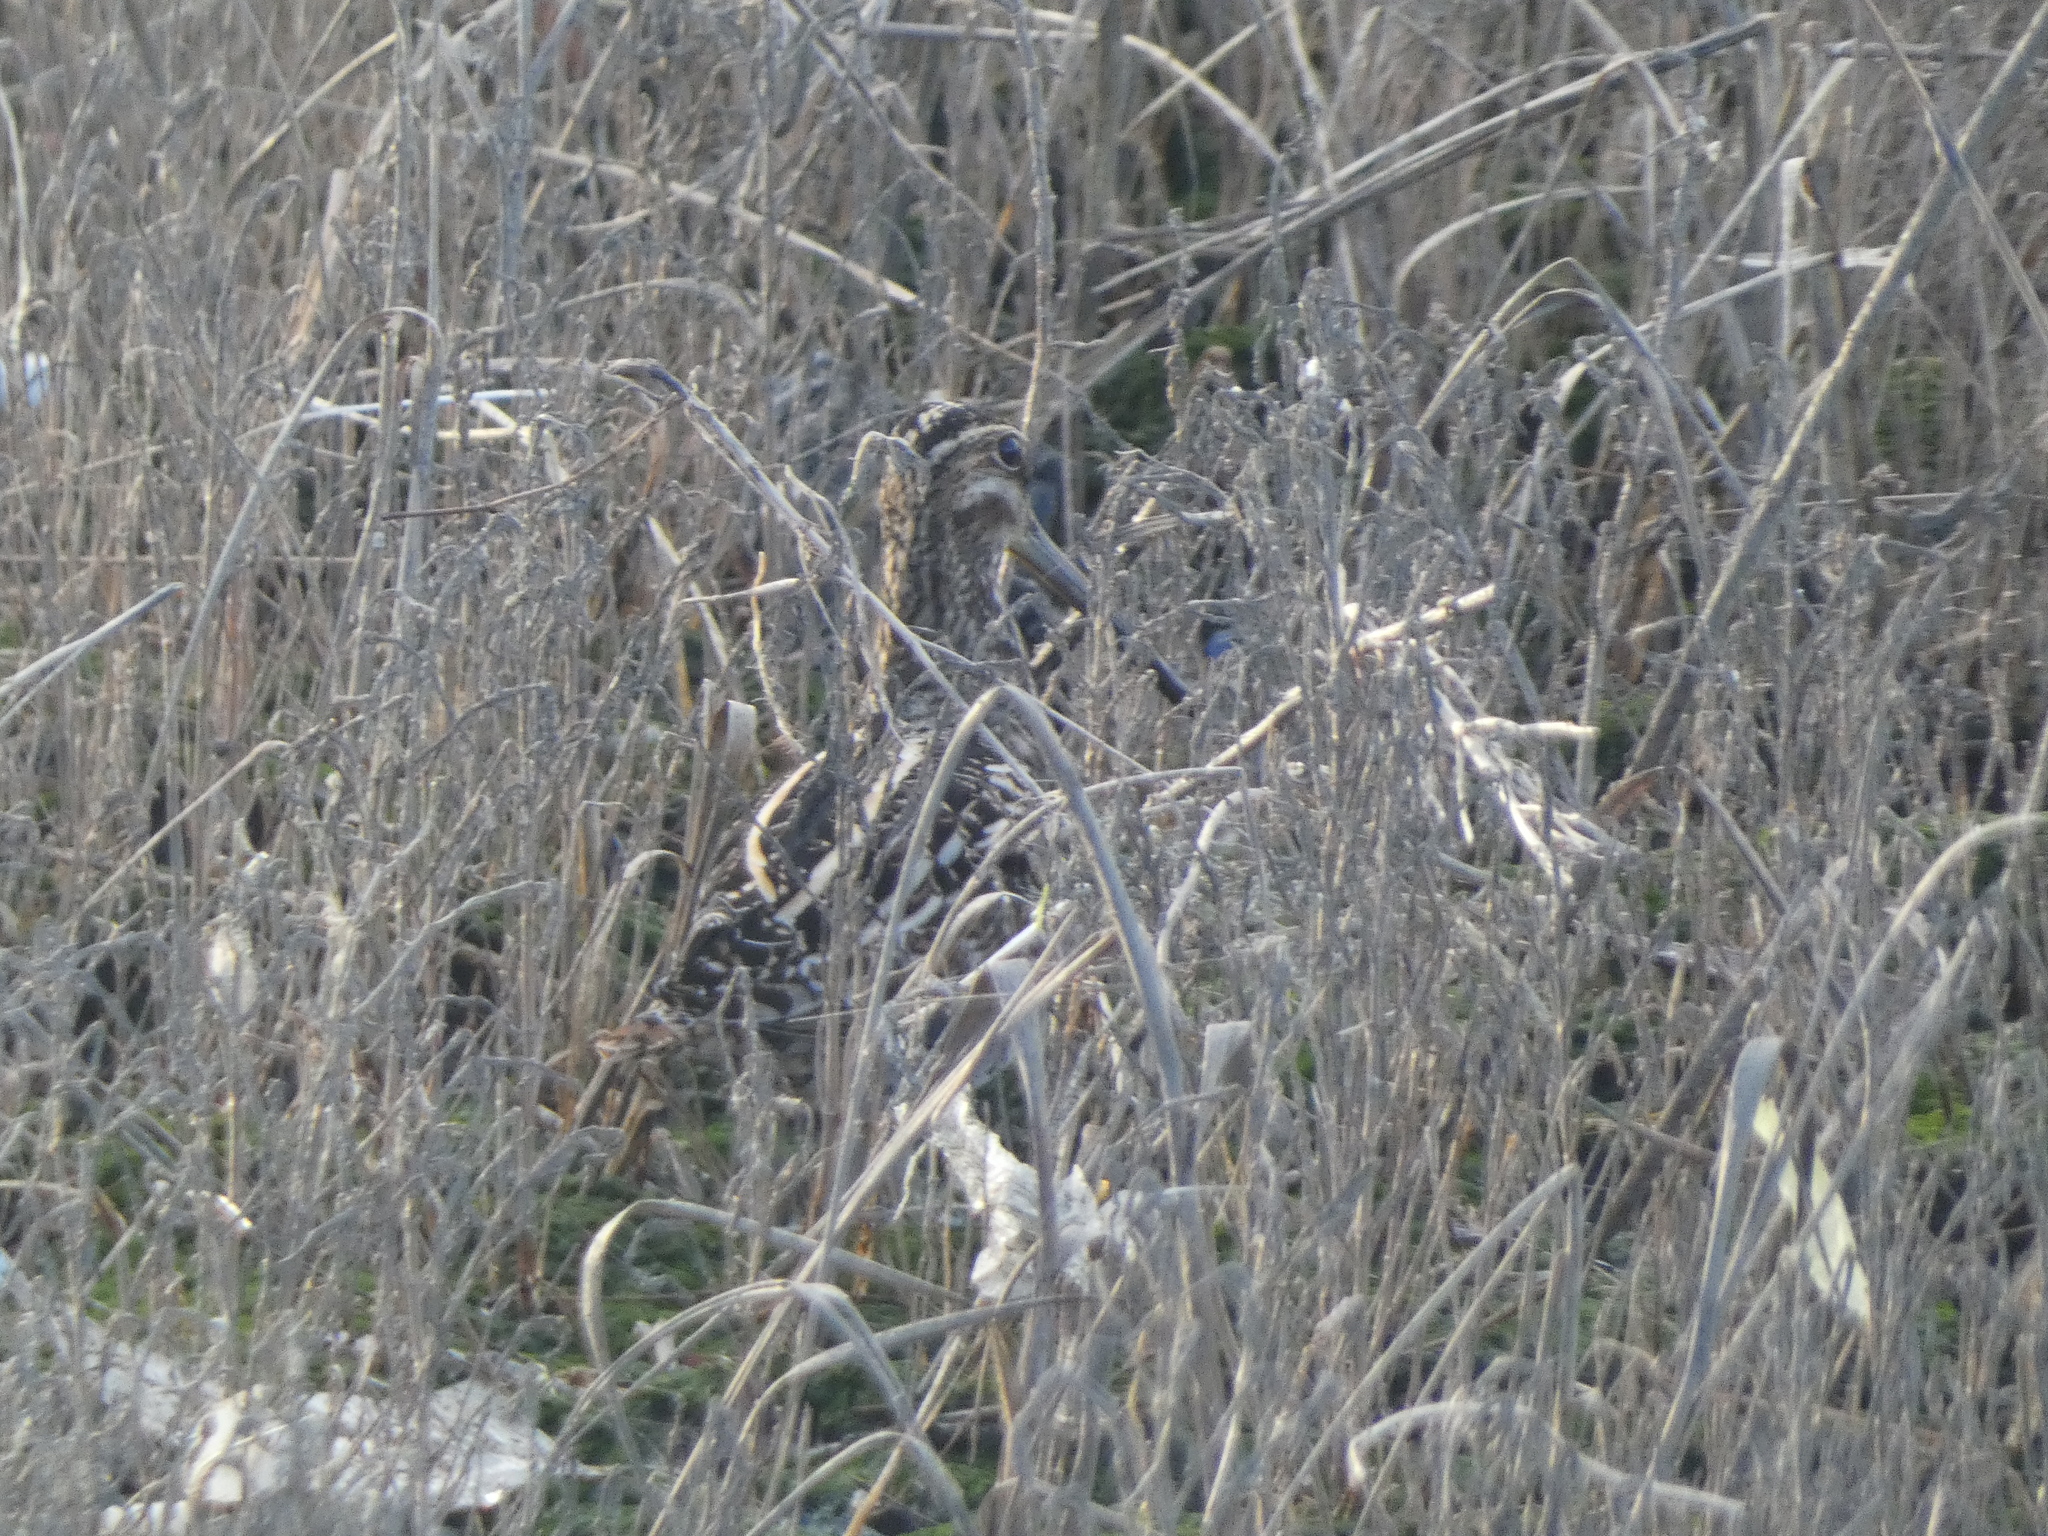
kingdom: Animalia
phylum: Chordata
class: Aves
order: Charadriiformes
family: Scolopacidae
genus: Gallinago
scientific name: Gallinago delicata
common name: Wilson's snipe
